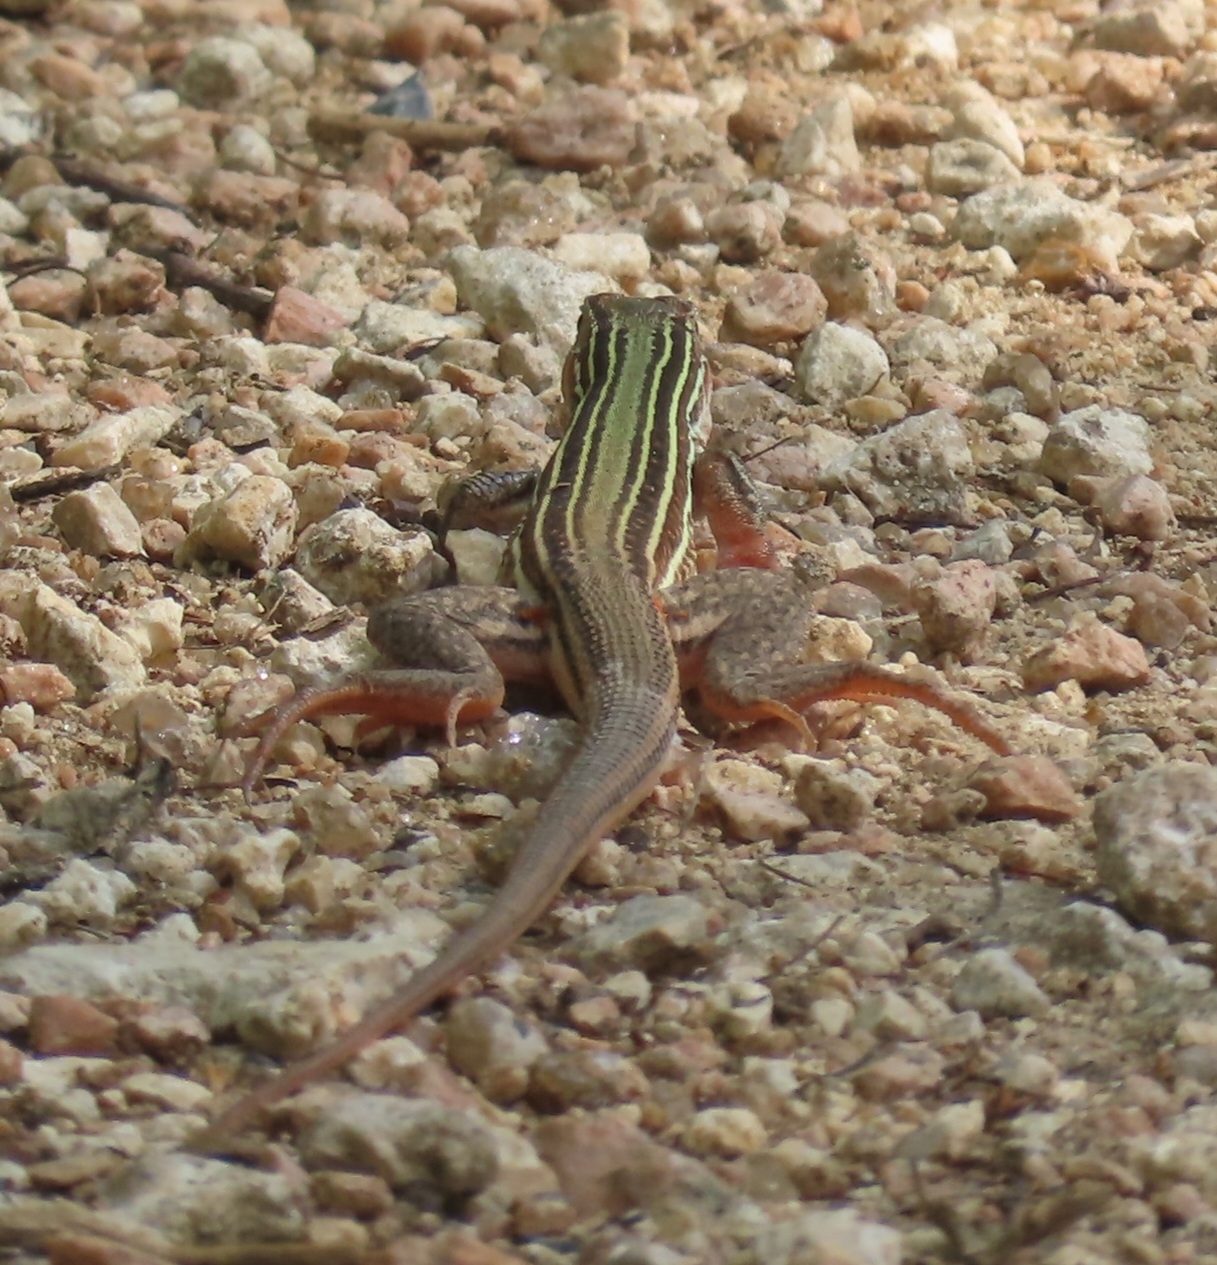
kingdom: Animalia
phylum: Chordata
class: Squamata
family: Teiidae
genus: Aspidoscelis
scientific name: Aspidoscelis gularis
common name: Eastern spotted whiptail
